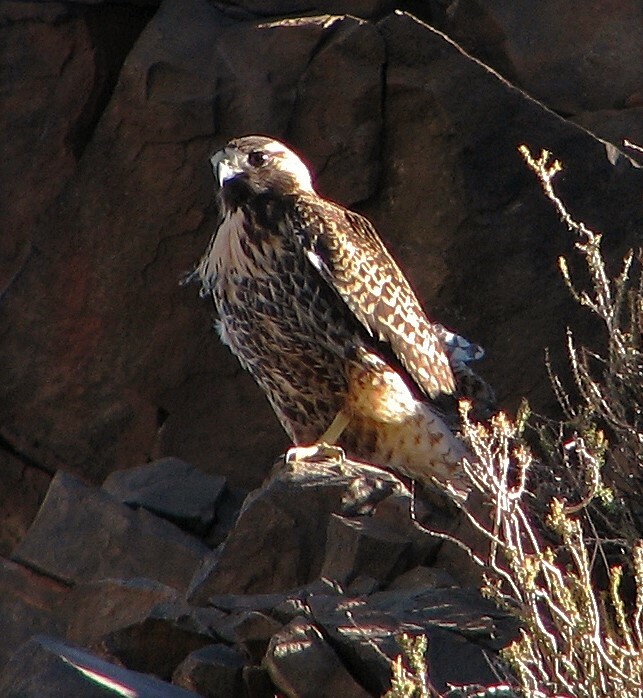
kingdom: Animalia
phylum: Chordata
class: Aves
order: Accipitriformes
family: Accipitridae
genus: Buteo
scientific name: Buteo polyosoma
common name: Variable hawk
